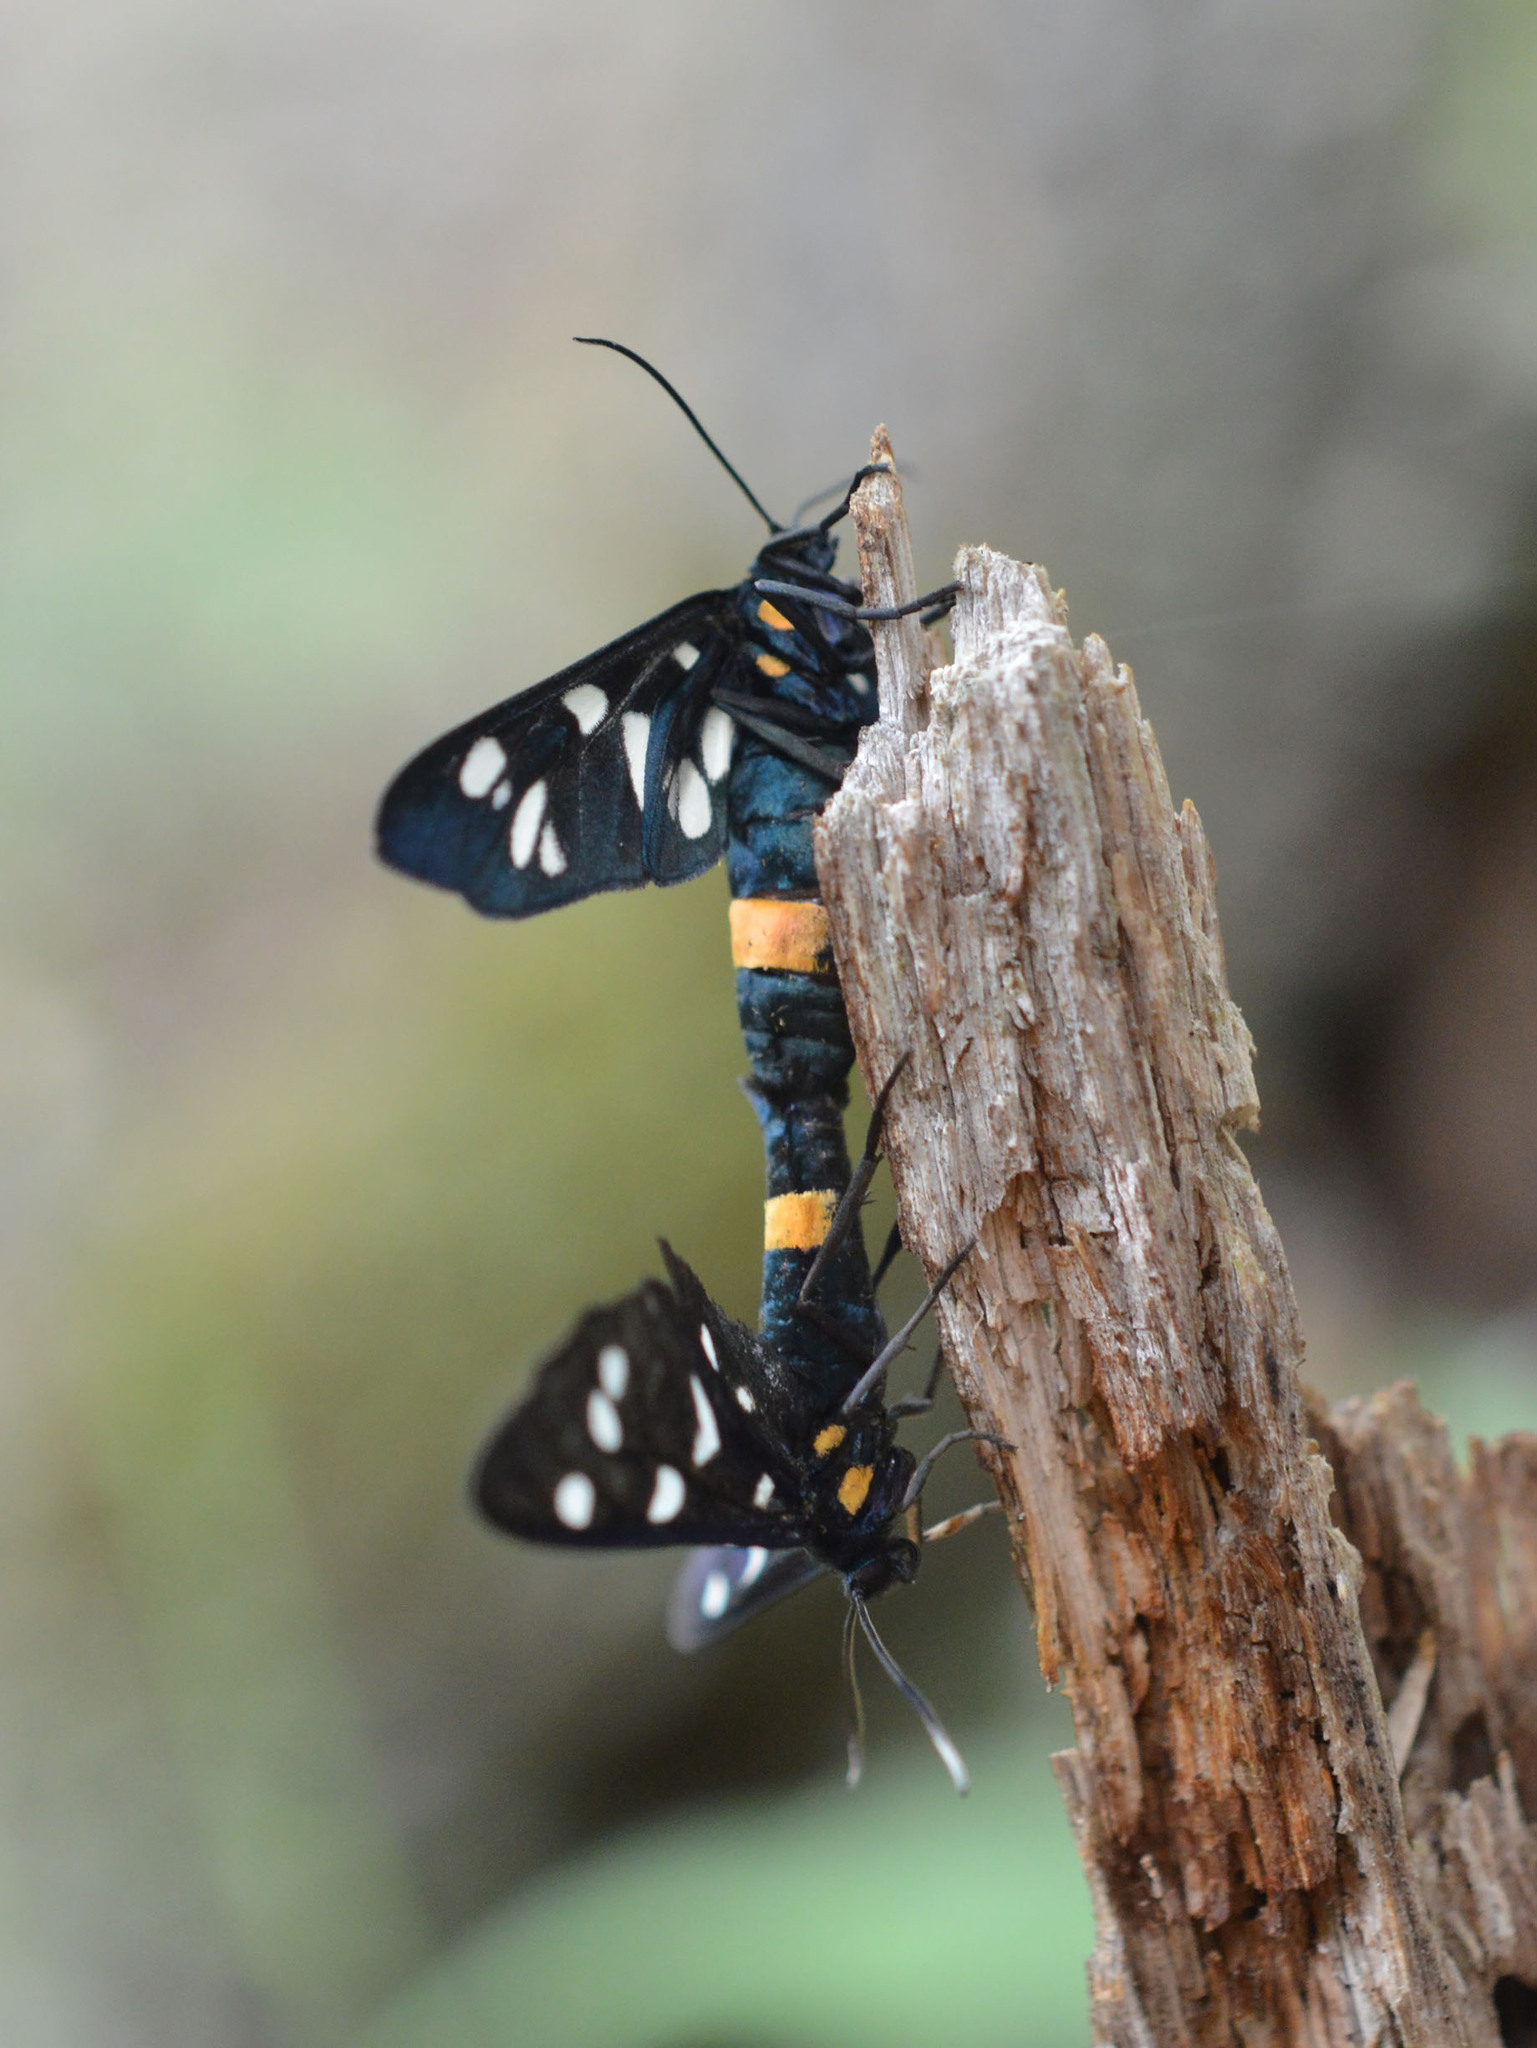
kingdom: Animalia
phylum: Arthropoda
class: Insecta
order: Lepidoptera
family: Erebidae
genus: Amata
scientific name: Amata phegea
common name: Nine-spotted
